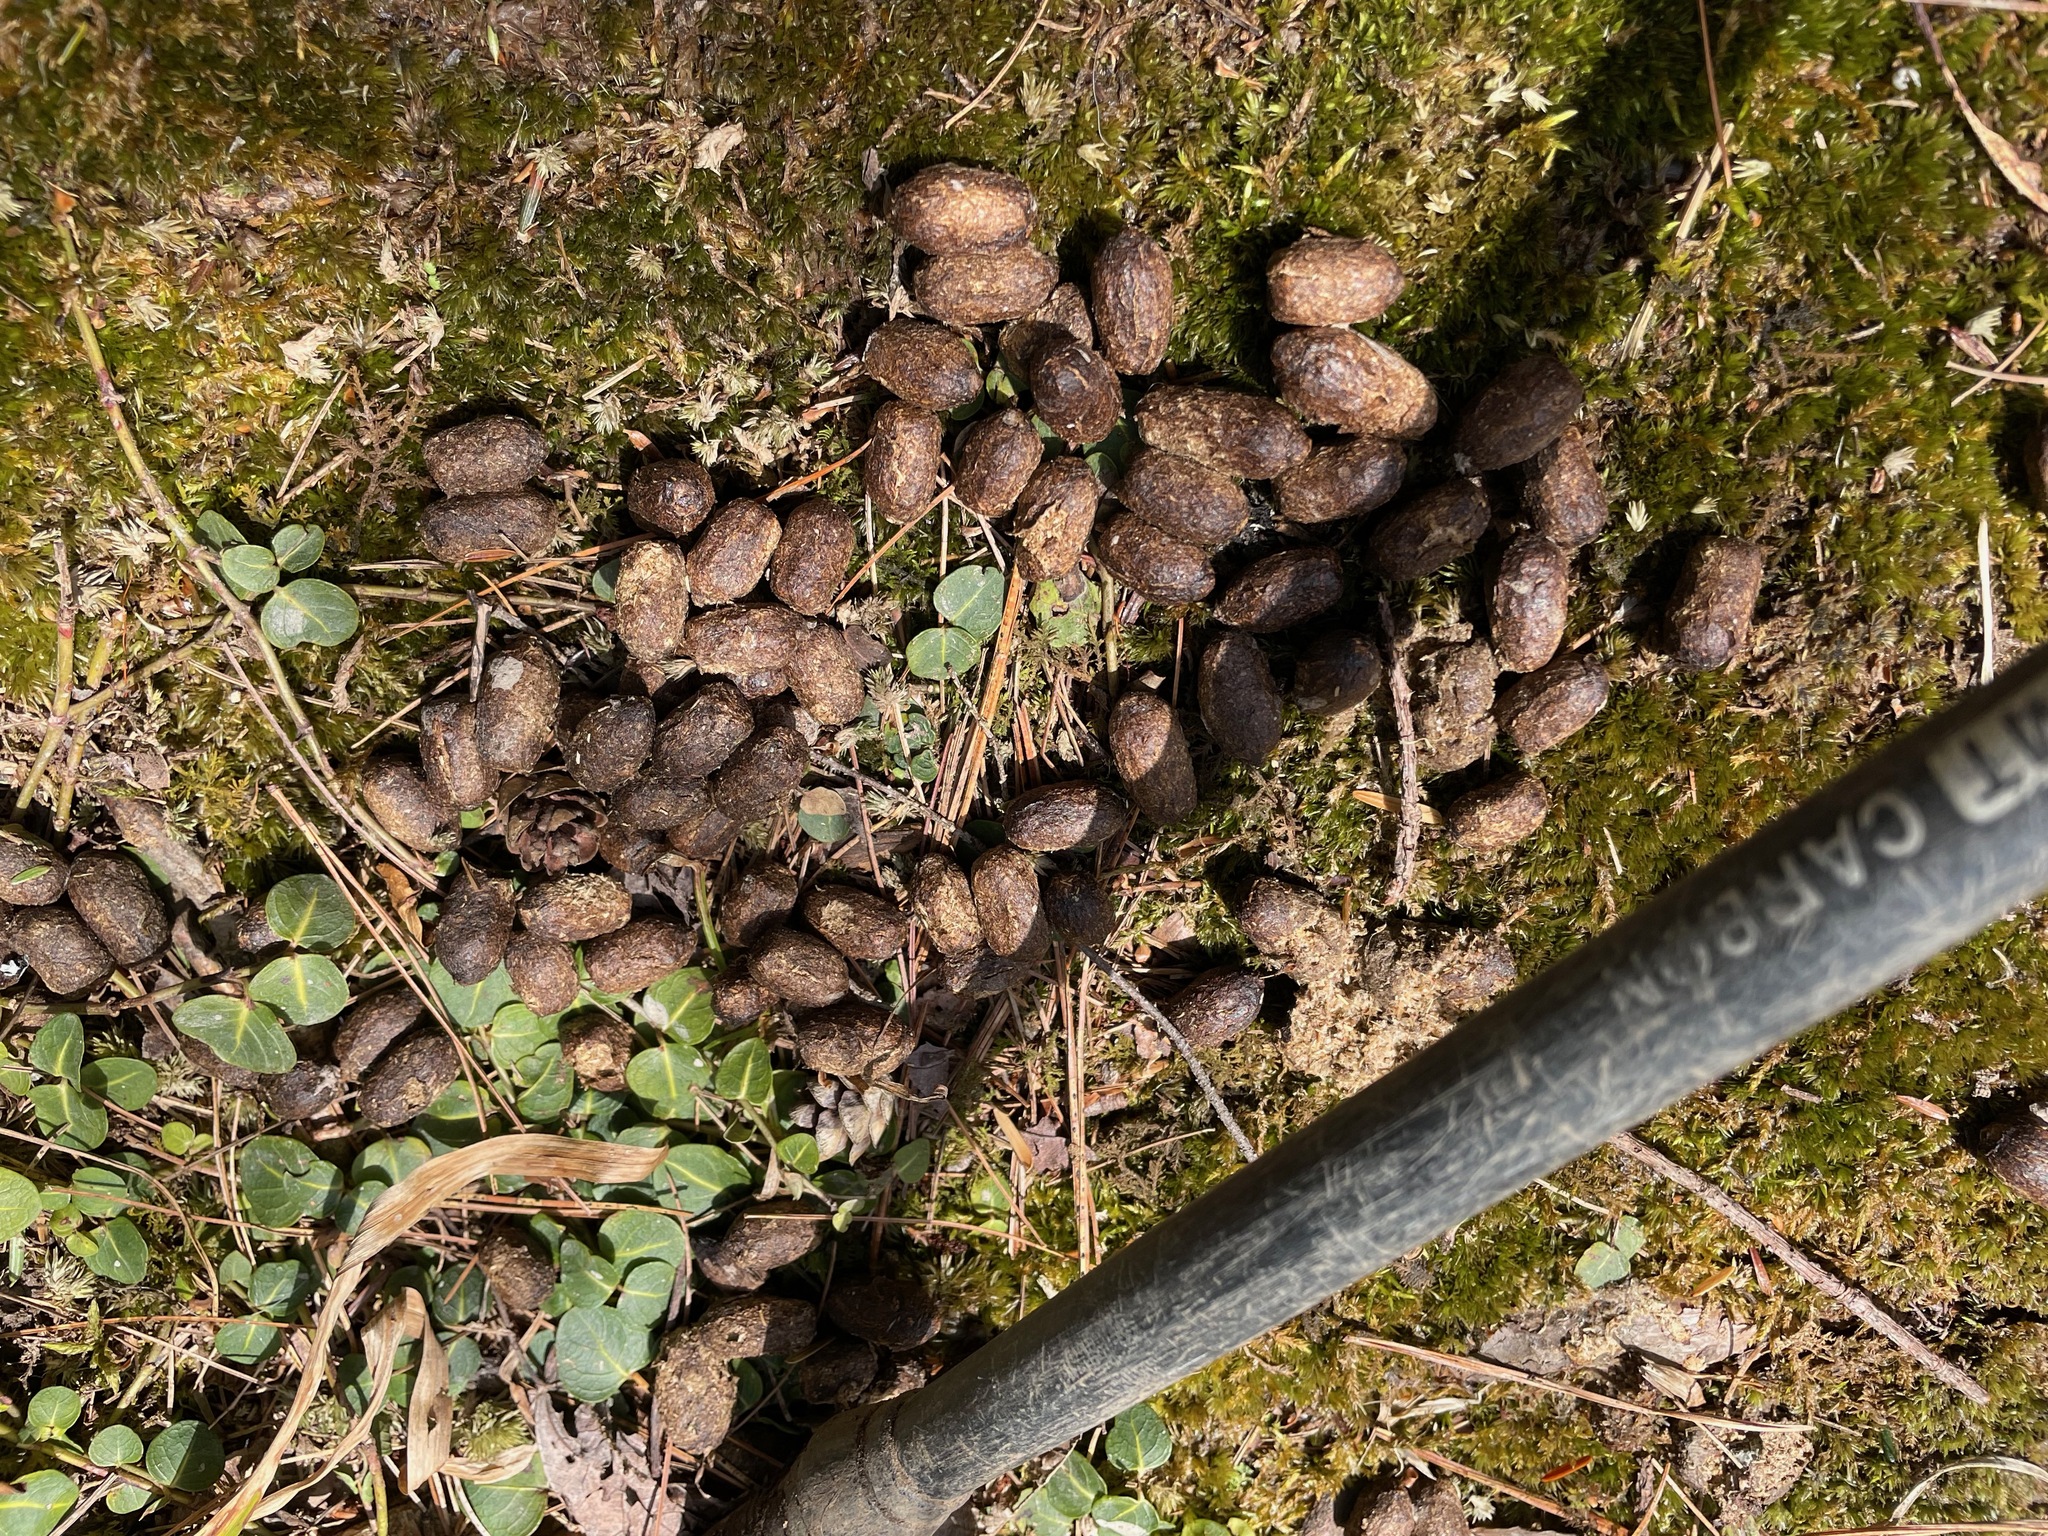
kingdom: Animalia
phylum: Chordata
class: Mammalia
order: Artiodactyla
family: Cervidae
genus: Odocoileus
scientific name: Odocoileus virginianus
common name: White-tailed deer
